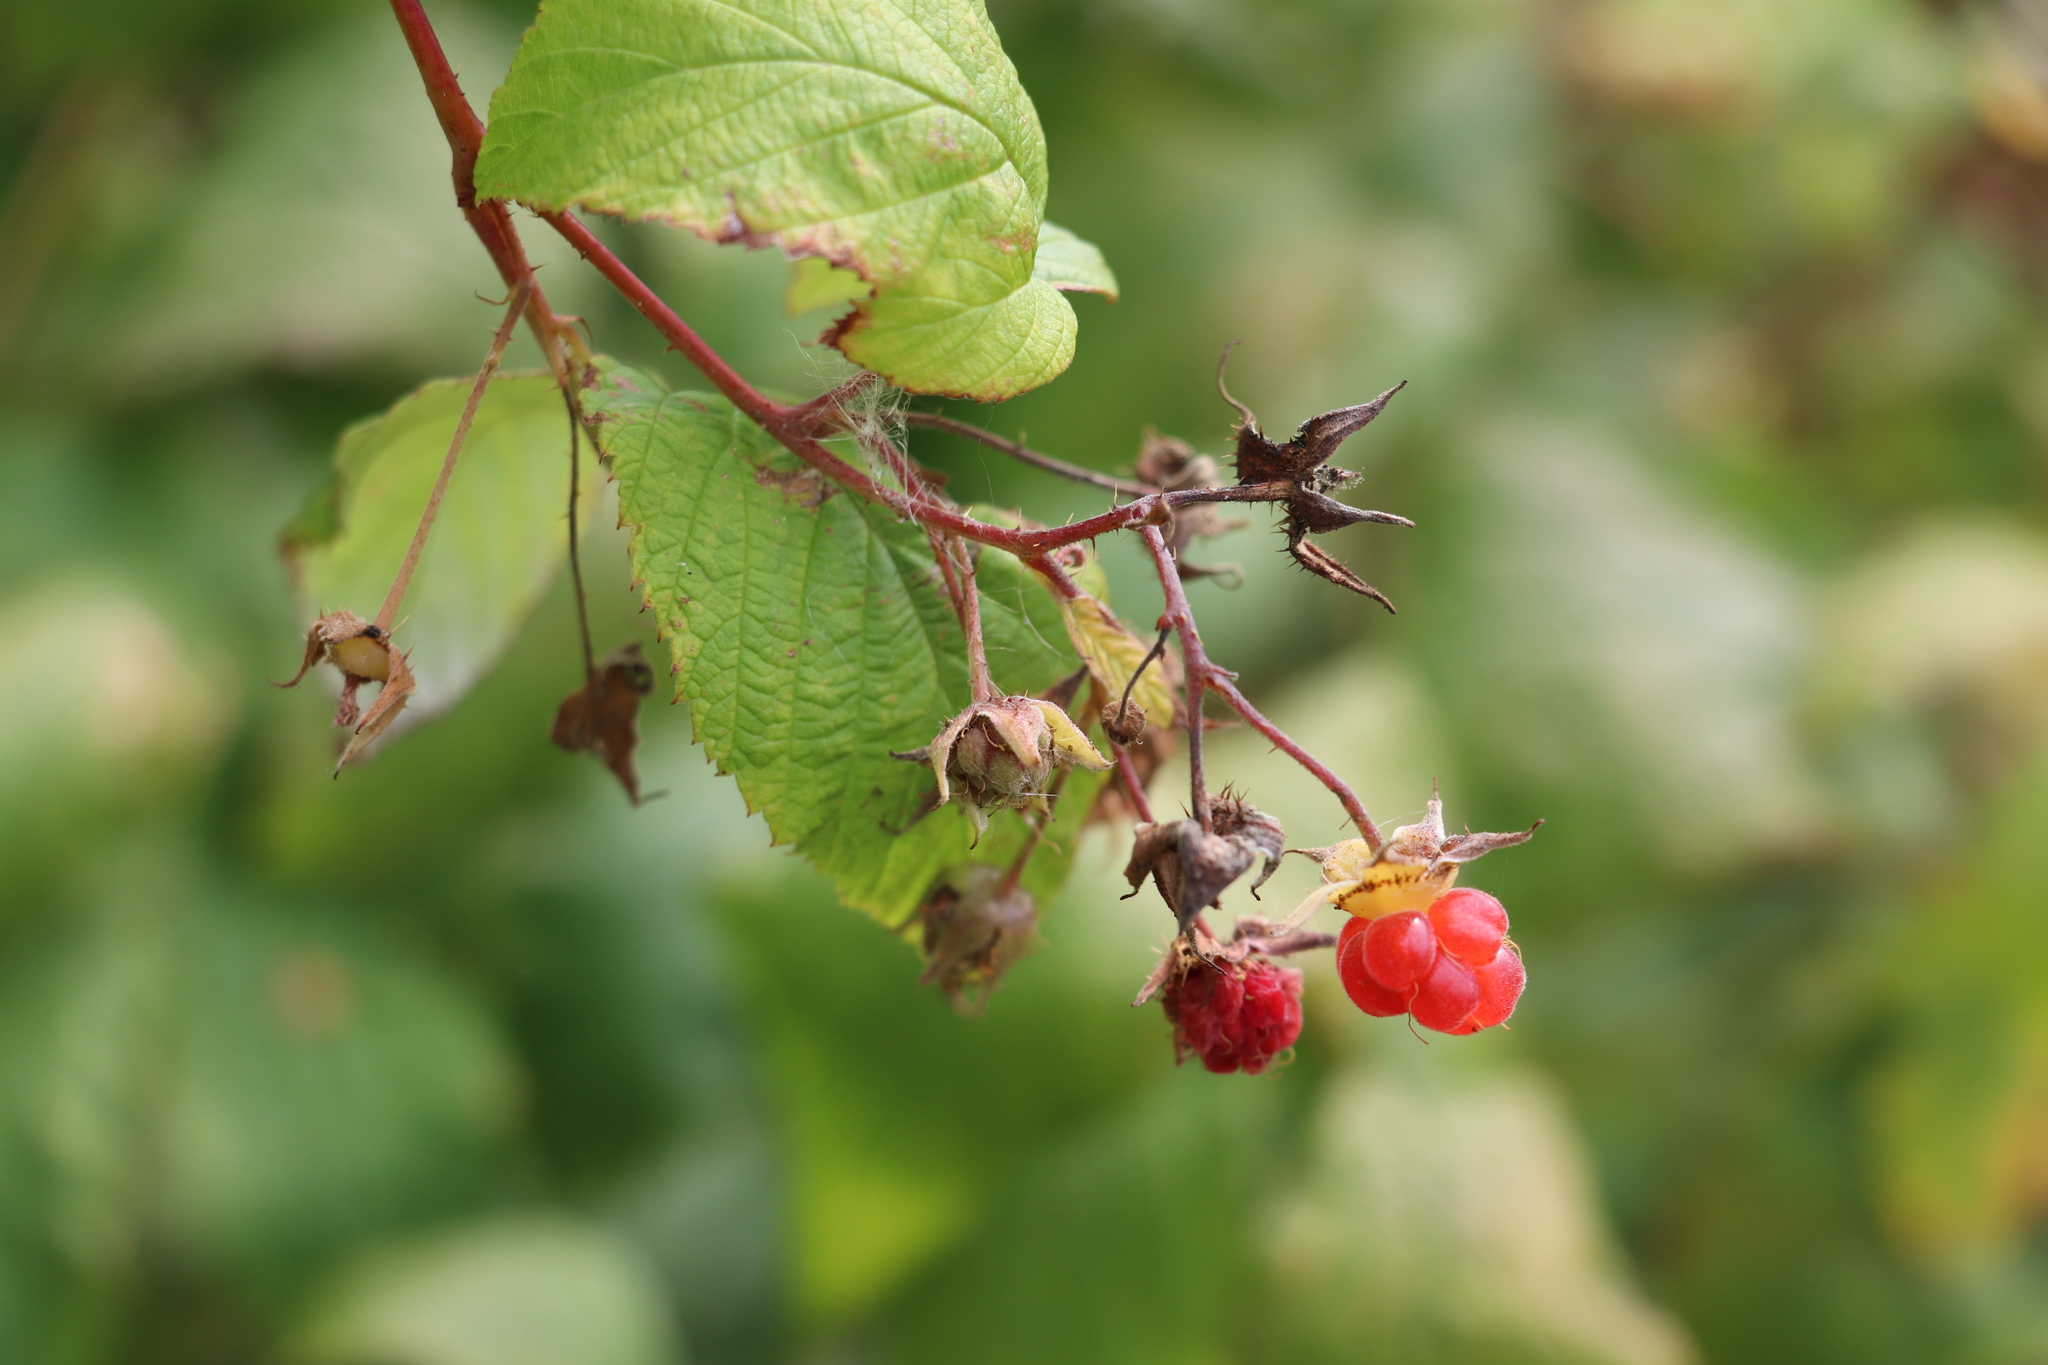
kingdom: Plantae
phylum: Tracheophyta
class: Magnoliopsida
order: Rosales
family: Rosaceae
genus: Rubus
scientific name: Rubus sachalinensis
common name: Red raspberry
